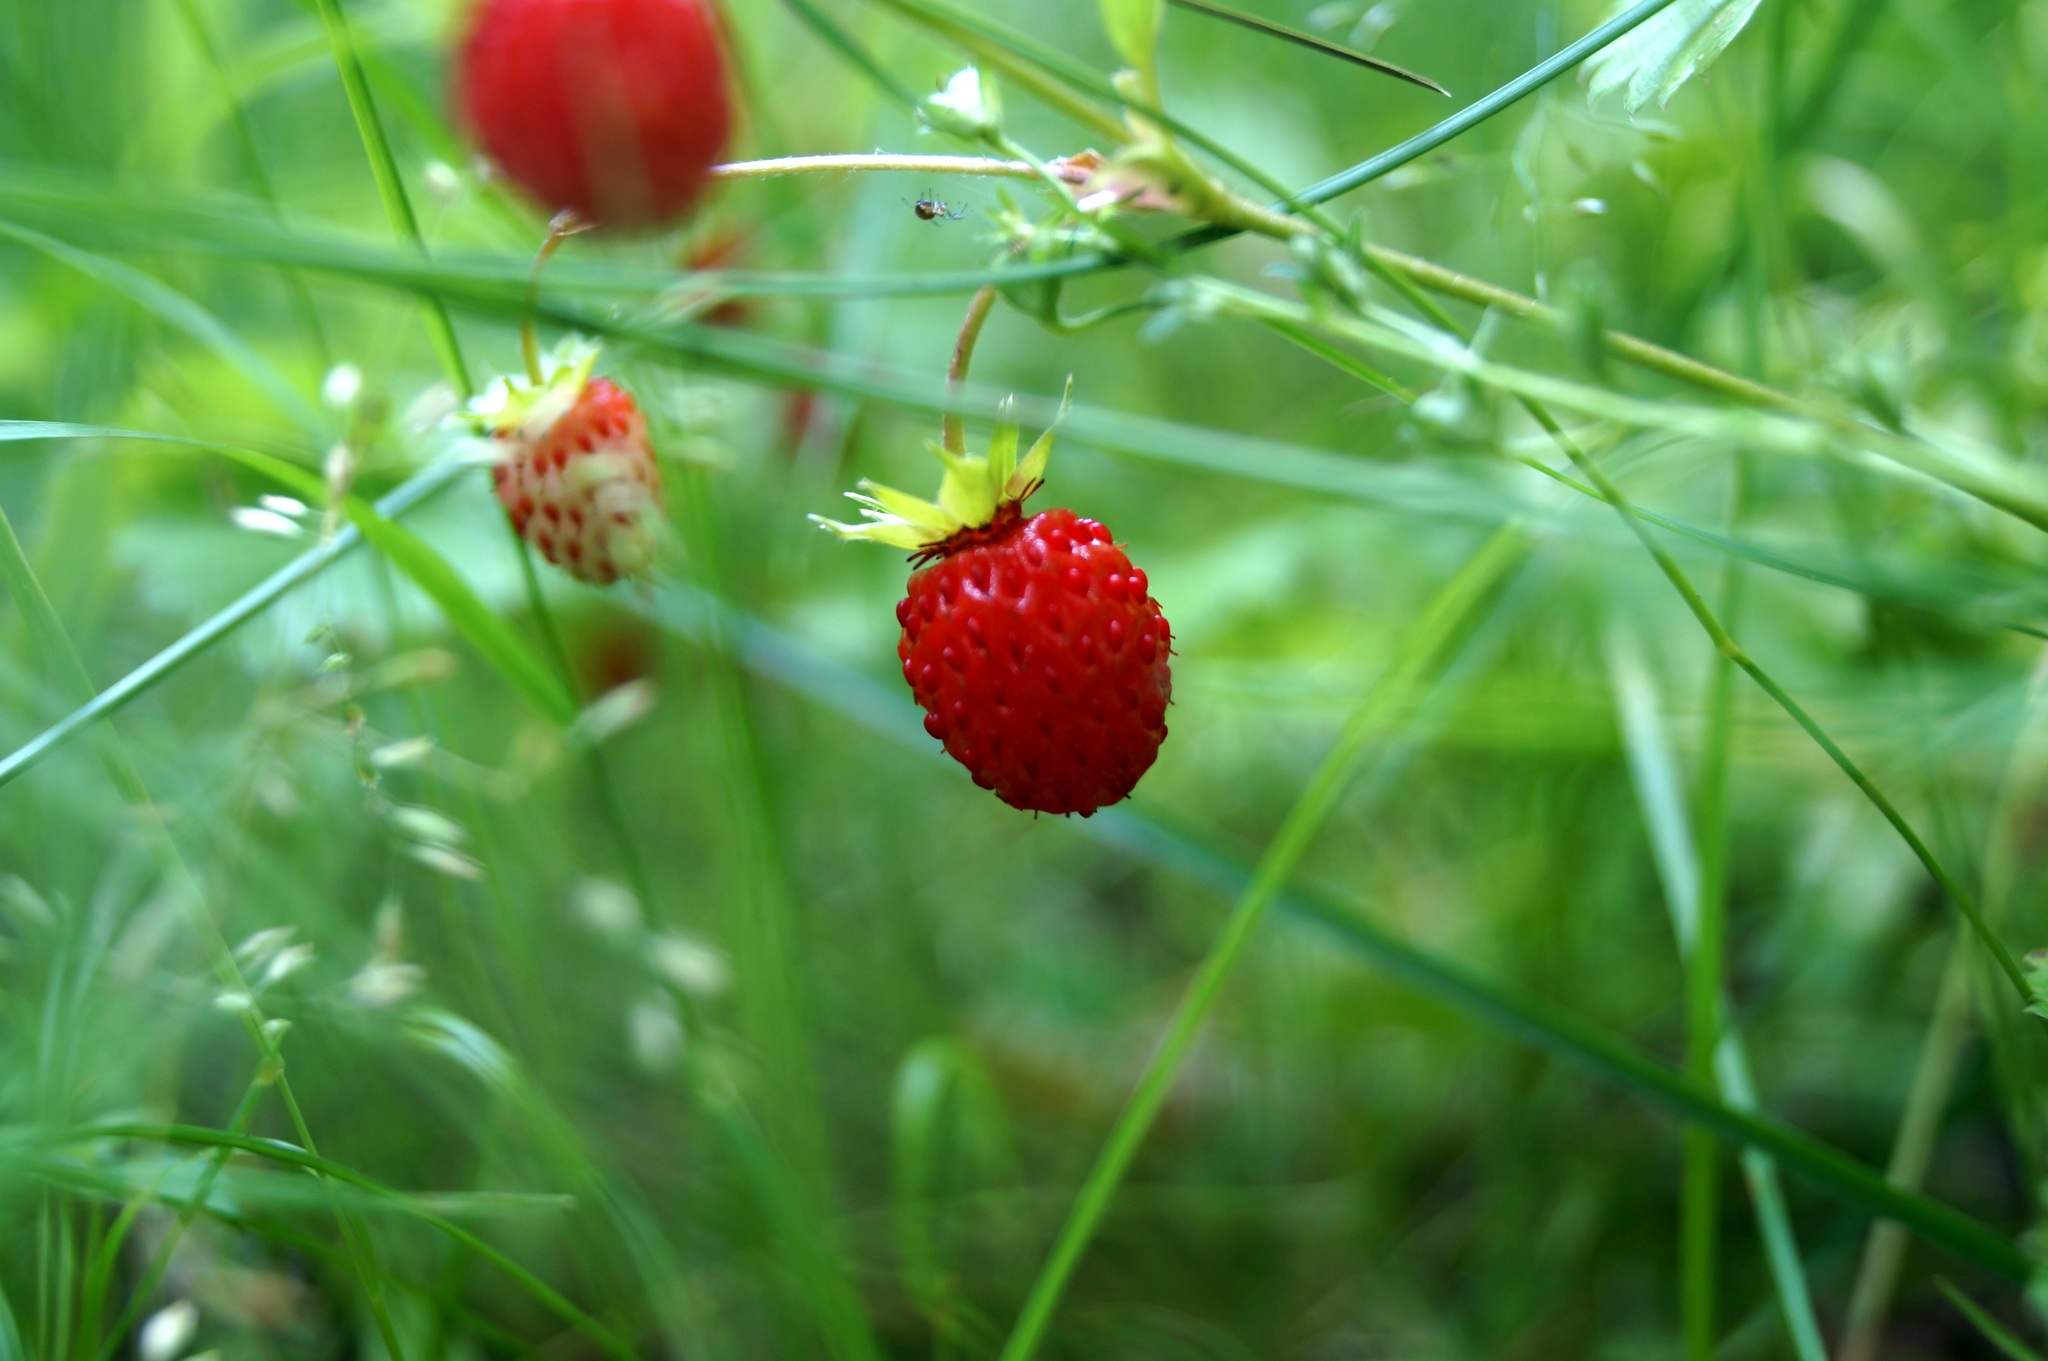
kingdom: Plantae
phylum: Tracheophyta
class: Magnoliopsida
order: Rosales
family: Rosaceae
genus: Fragaria
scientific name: Fragaria vesca
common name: Wild strawberry
